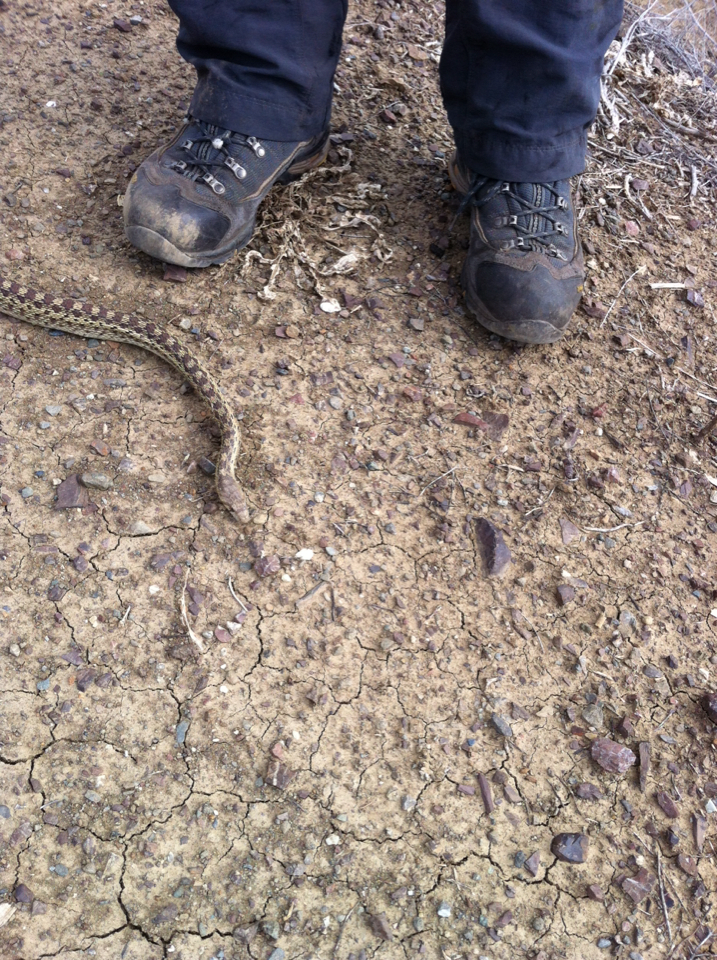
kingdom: Animalia
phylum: Chordata
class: Squamata
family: Colubridae
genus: Pituophis
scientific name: Pituophis catenifer
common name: Gopher snake
